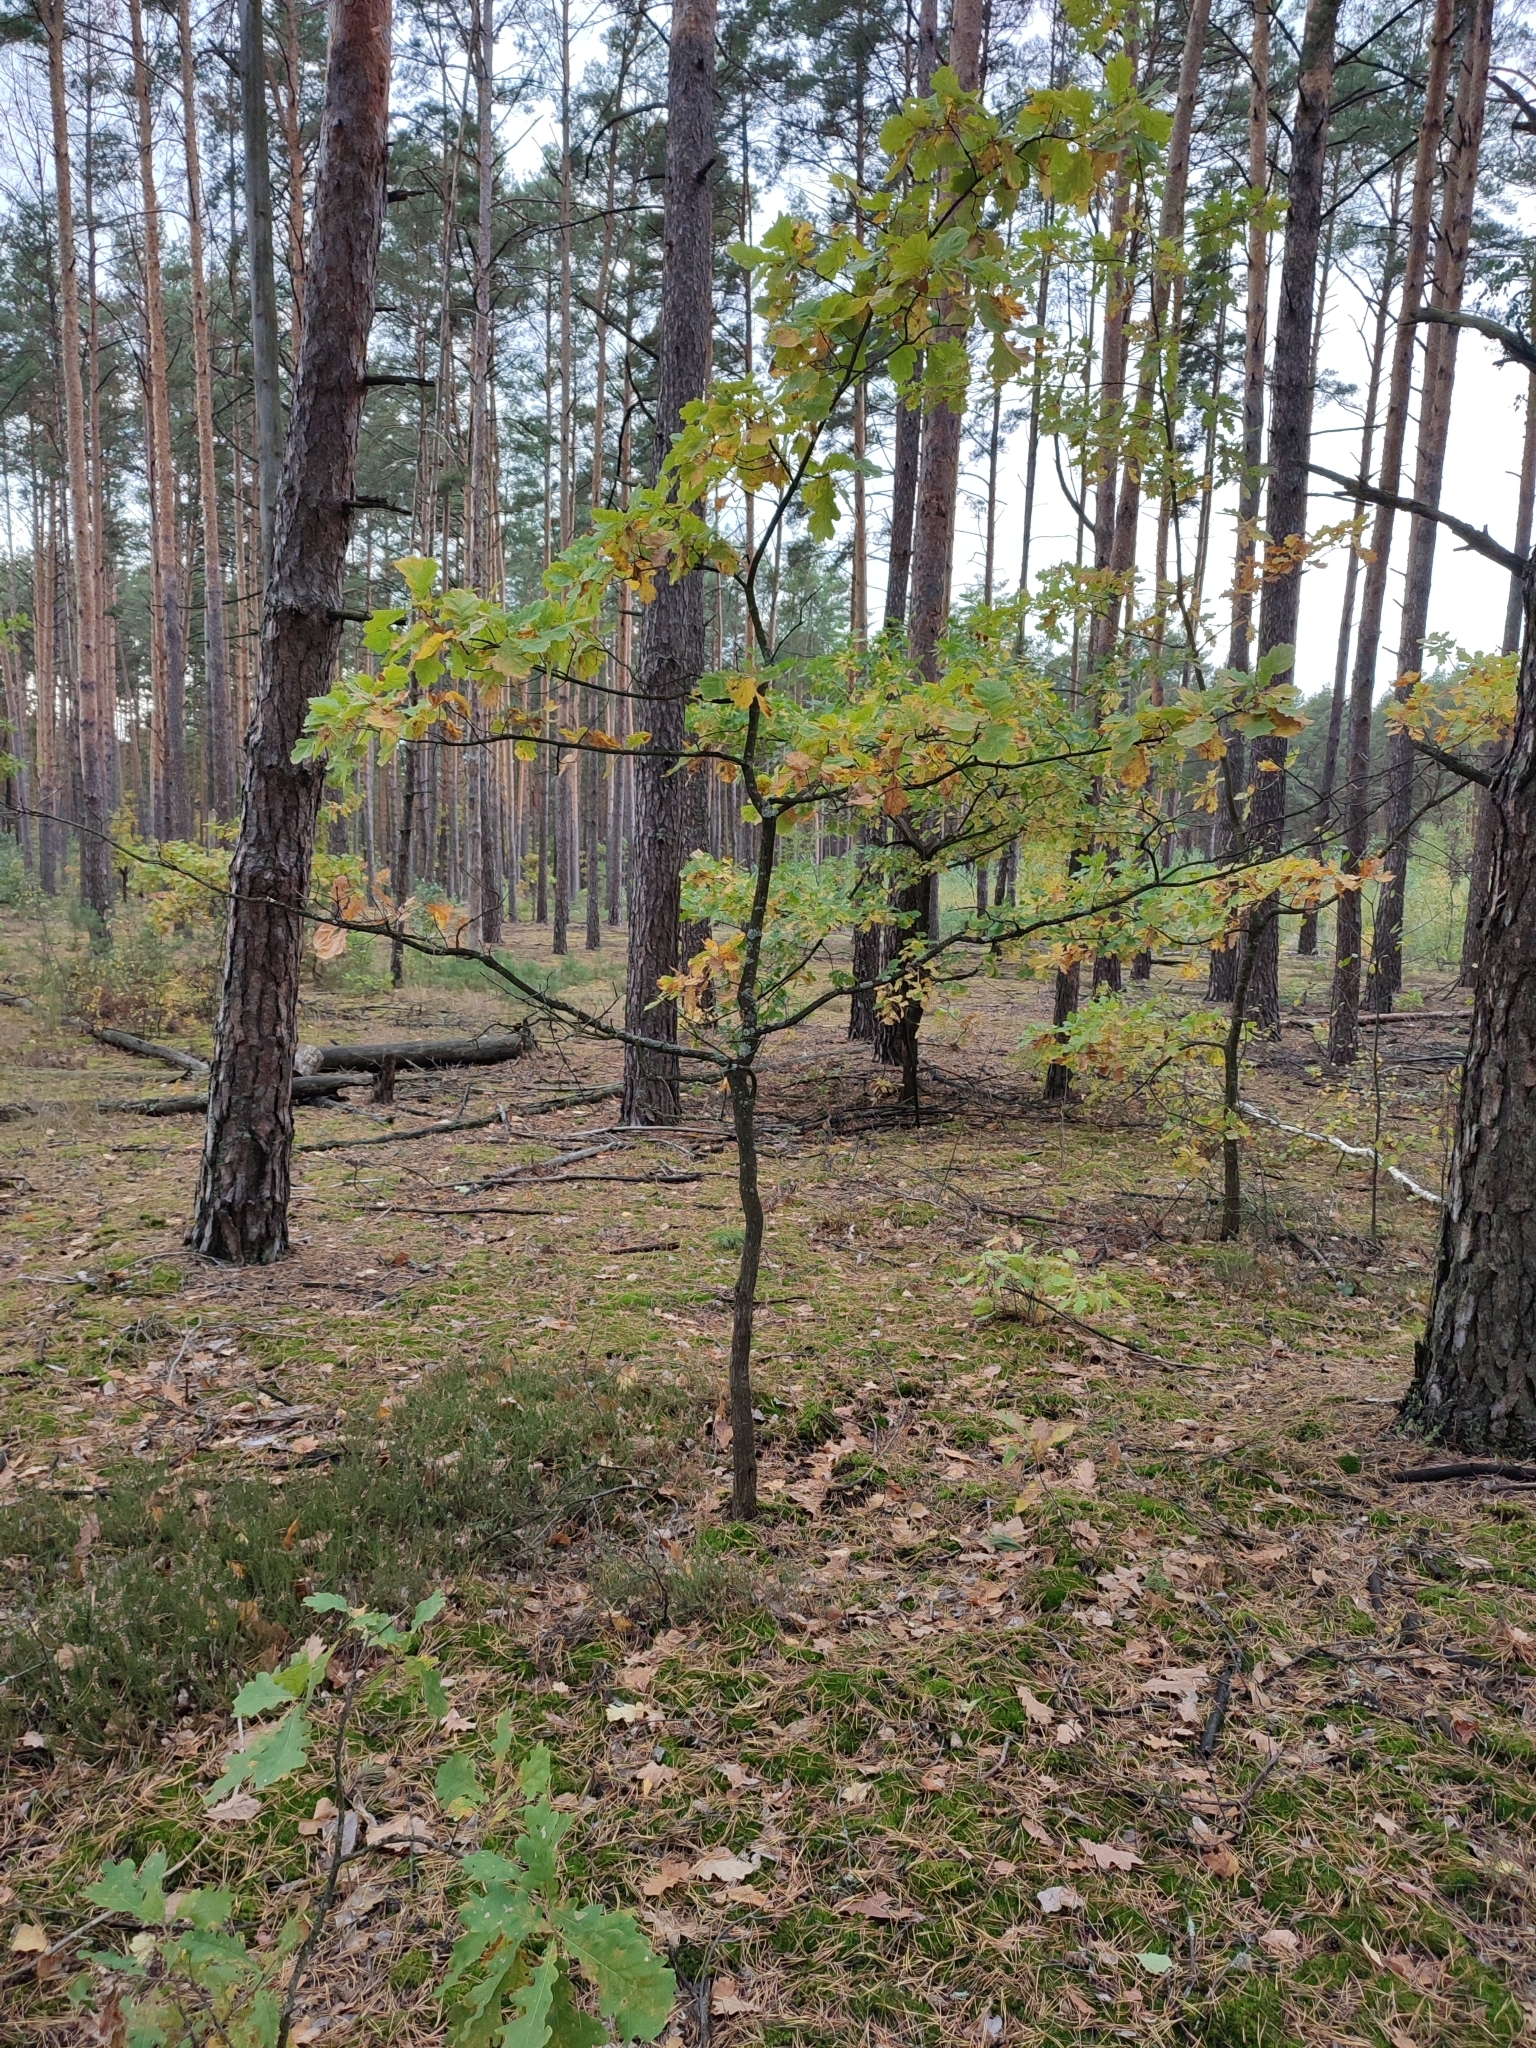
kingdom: Plantae
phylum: Tracheophyta
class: Magnoliopsida
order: Fagales
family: Fagaceae
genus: Quercus
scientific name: Quercus robur
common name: Pedunculate oak
